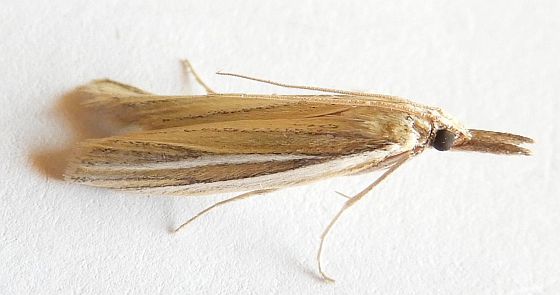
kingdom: Animalia
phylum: Arthropoda
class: Insecta
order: Lepidoptera
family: Pyralidae
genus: Arivaca
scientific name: Arivaca ostreella
